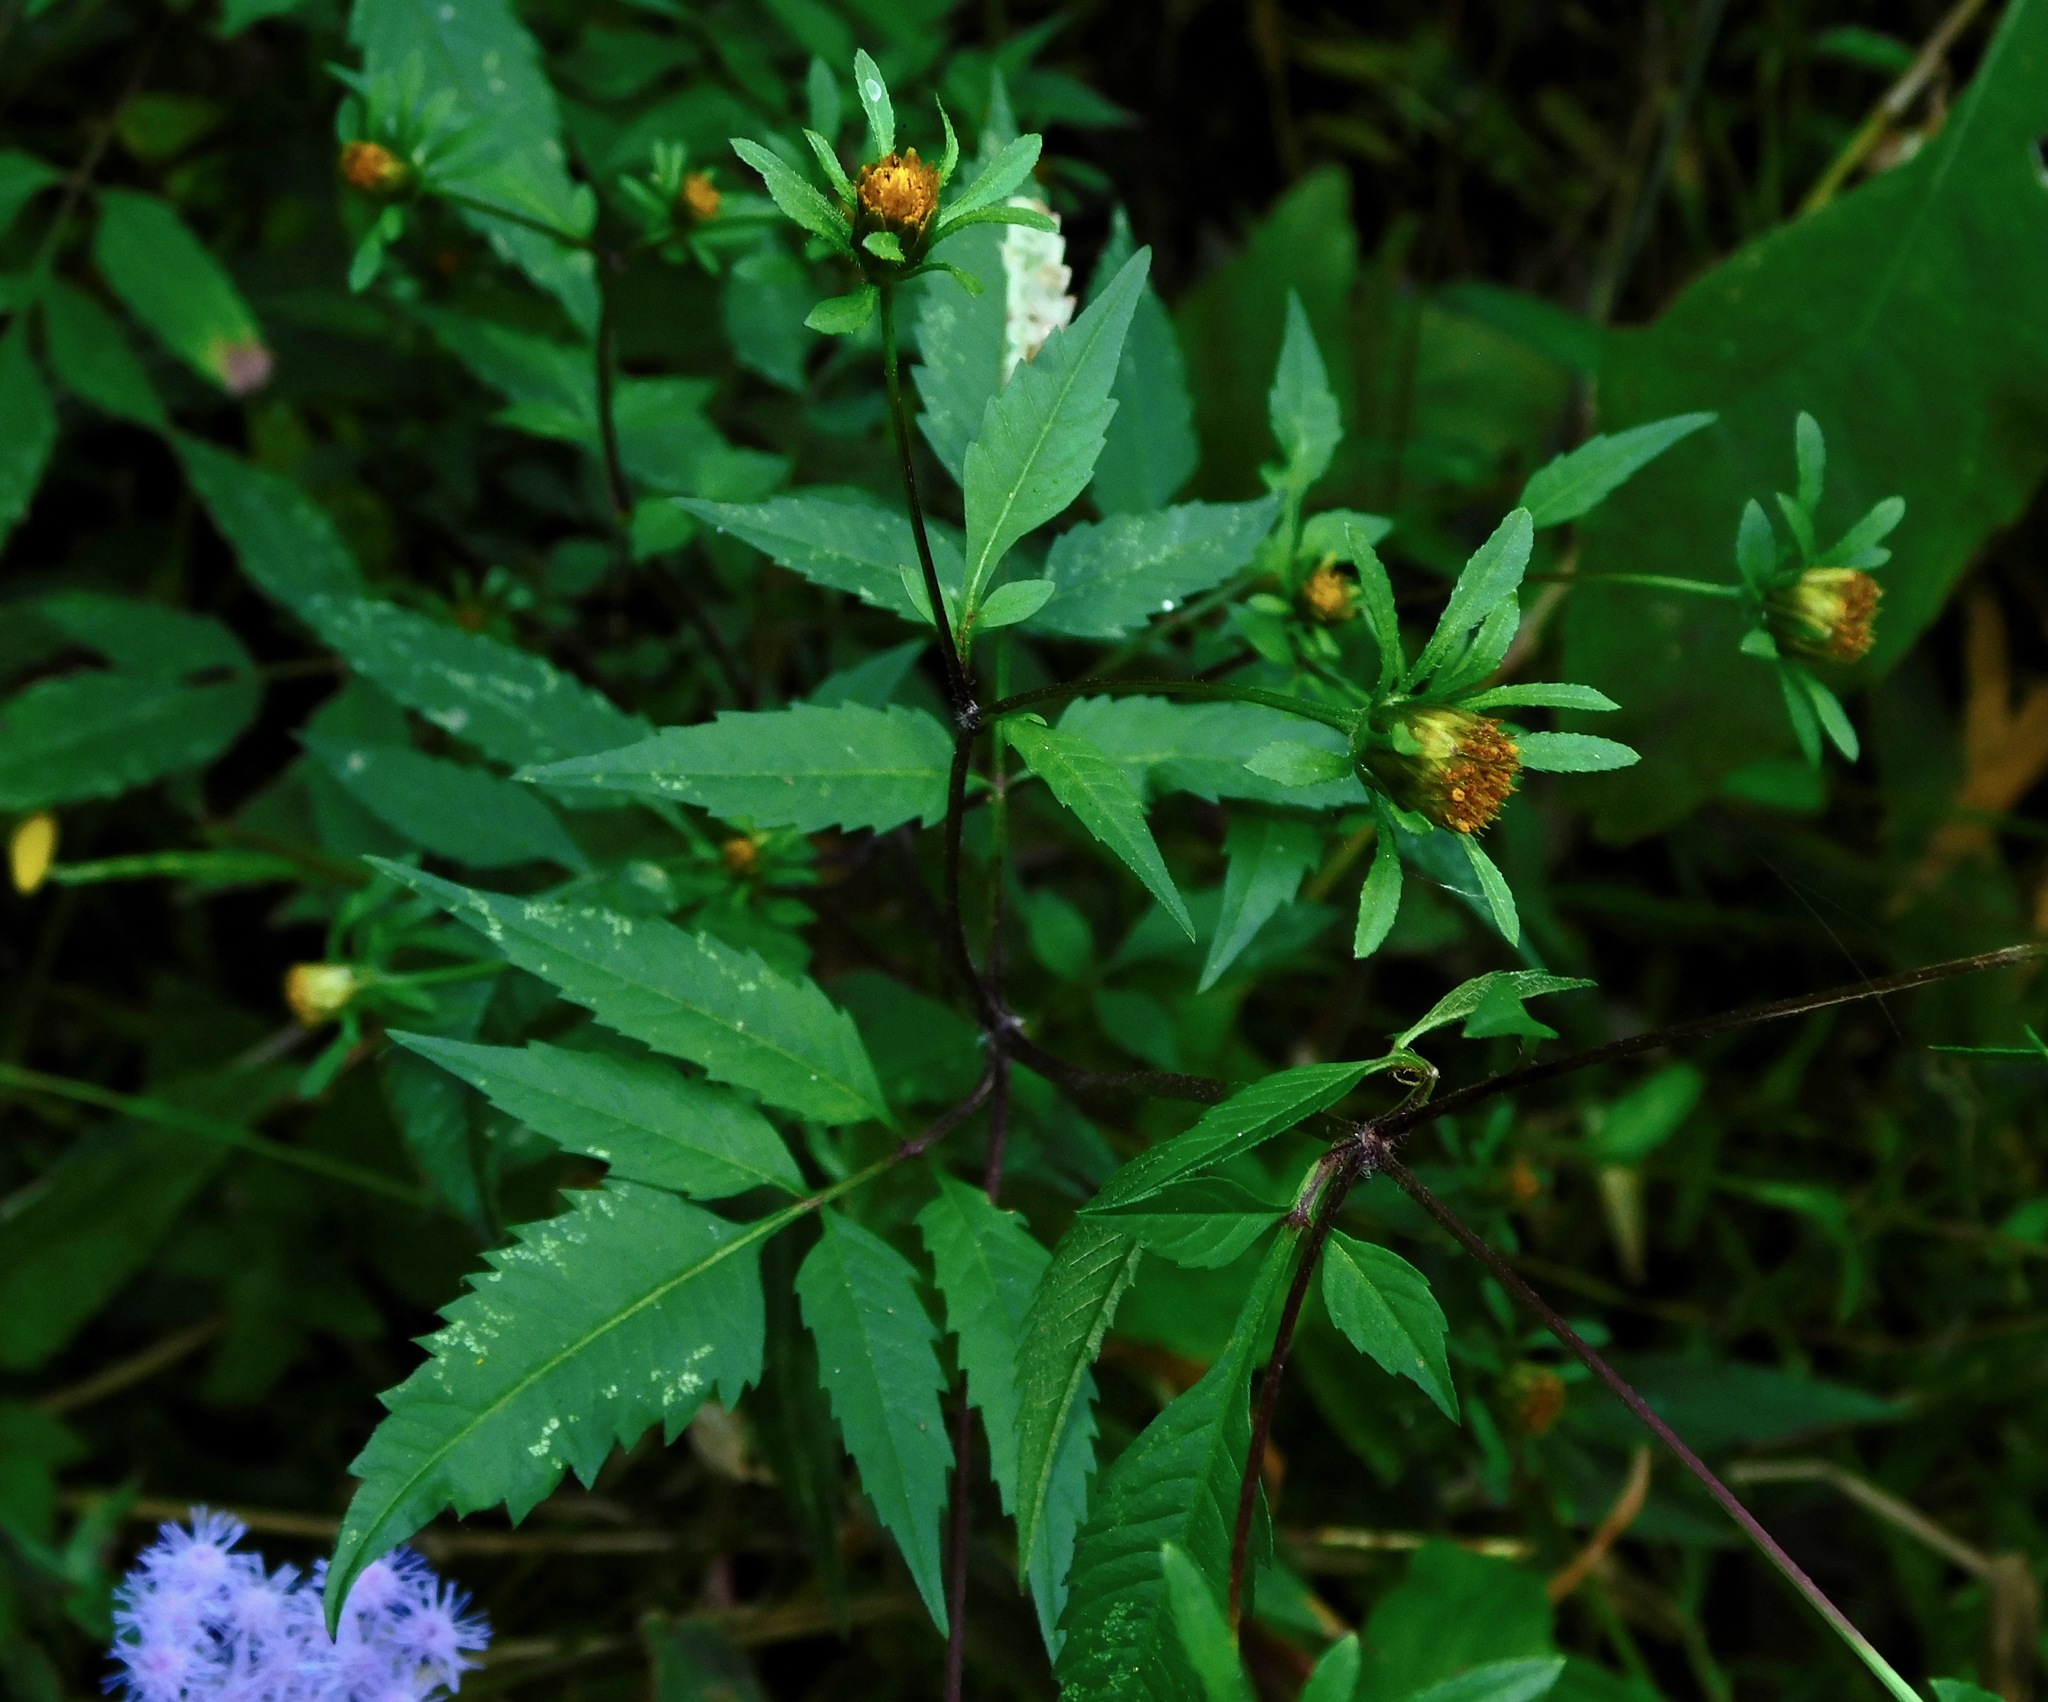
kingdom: Plantae
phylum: Tracheophyta
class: Magnoliopsida
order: Asterales
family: Asteraceae
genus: Bidens
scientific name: Bidens frondosa
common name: Beggarticks
